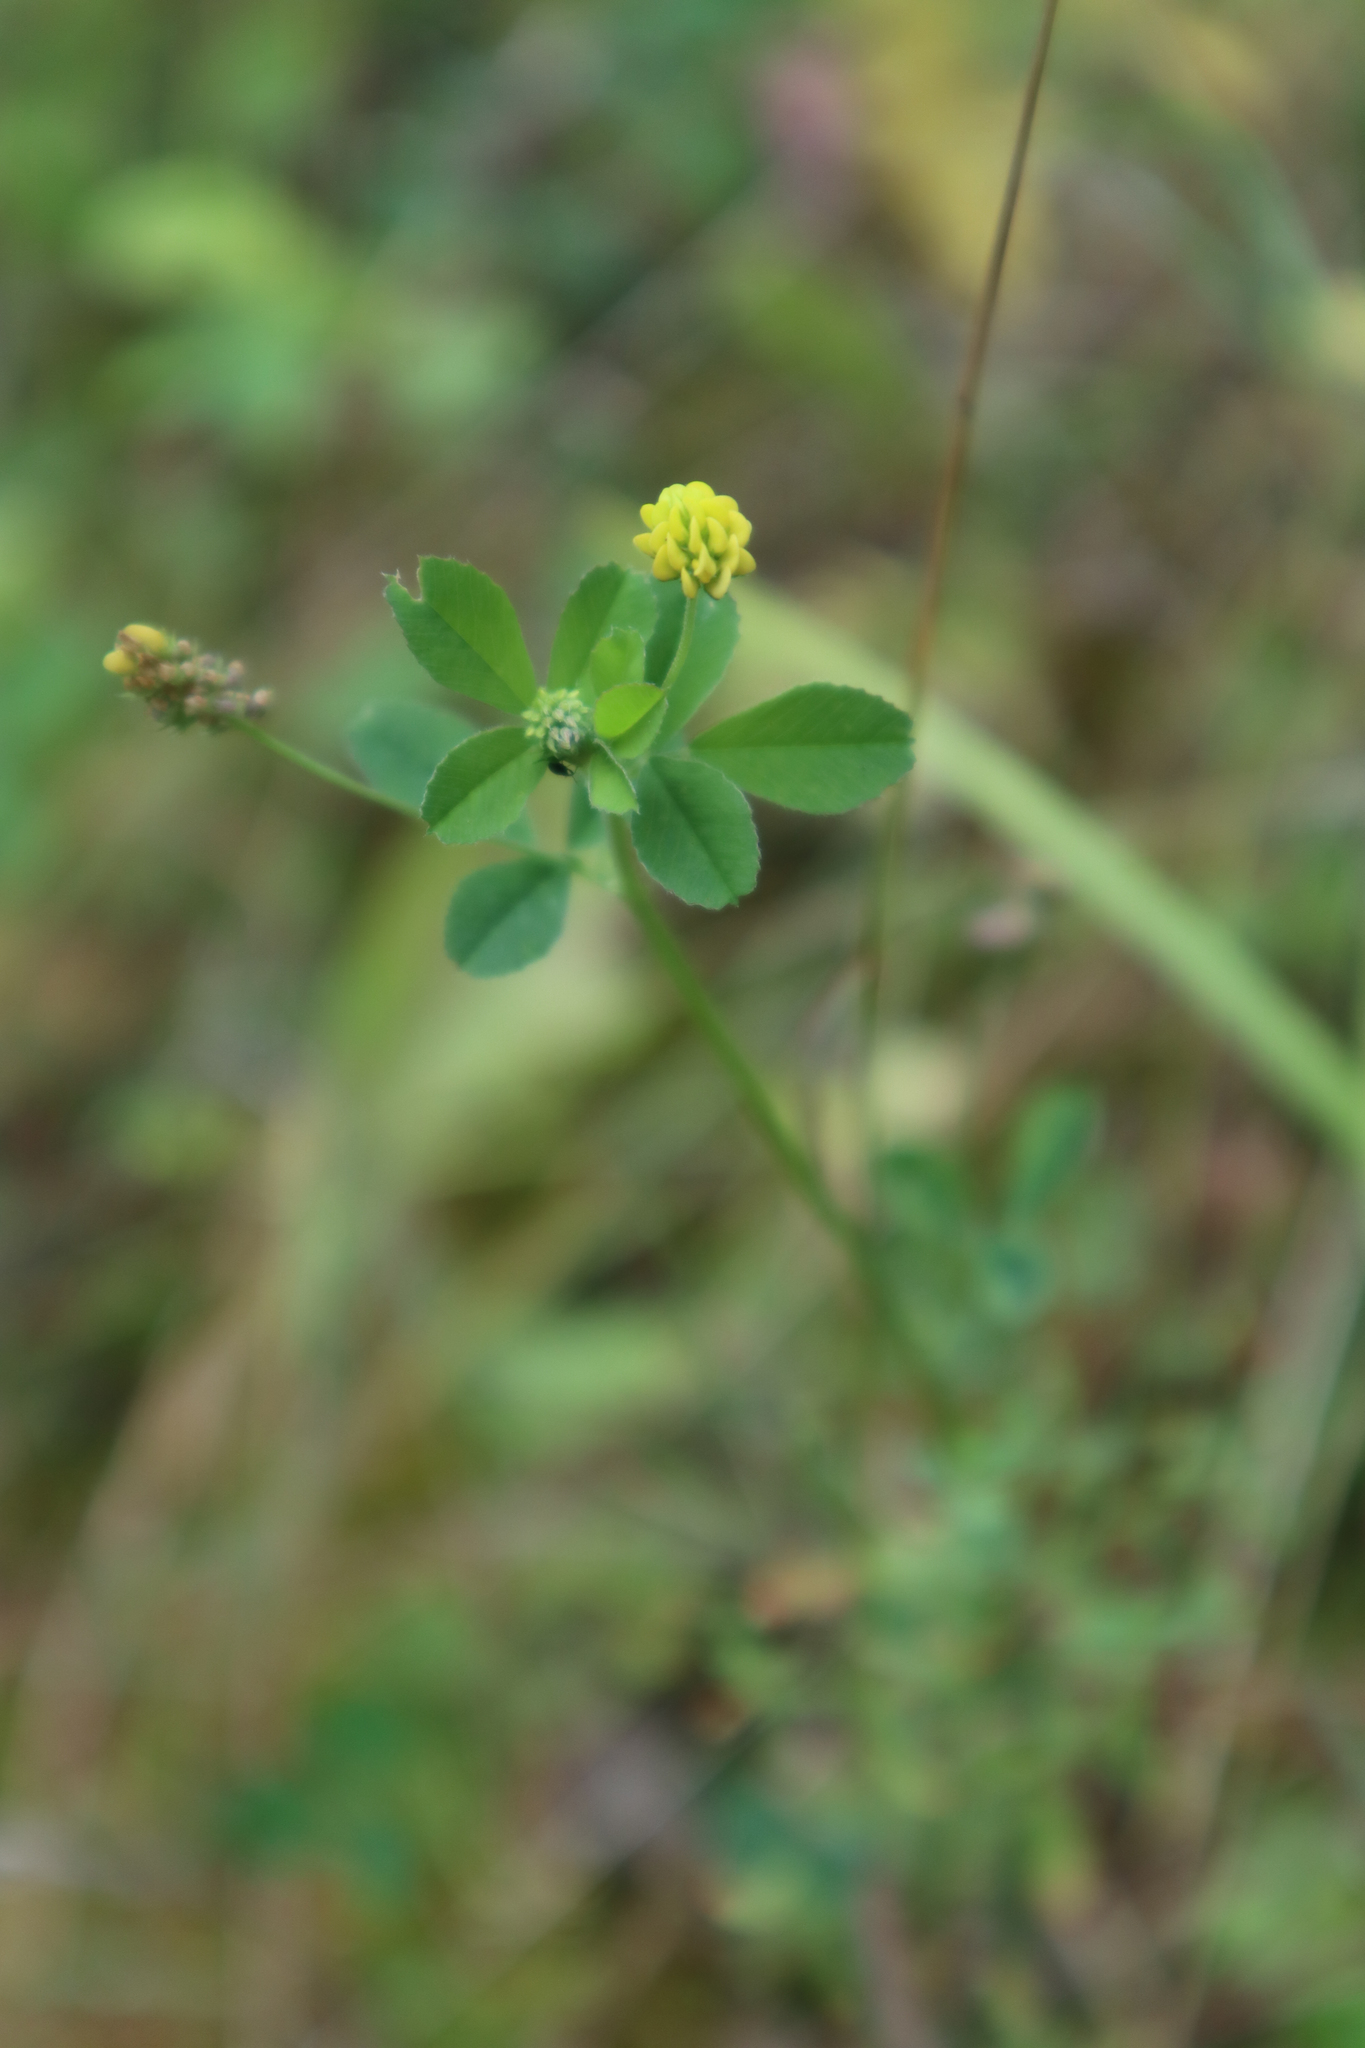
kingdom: Plantae
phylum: Tracheophyta
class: Magnoliopsida
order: Fabales
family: Fabaceae
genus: Medicago
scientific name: Medicago lupulina
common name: Black medick
